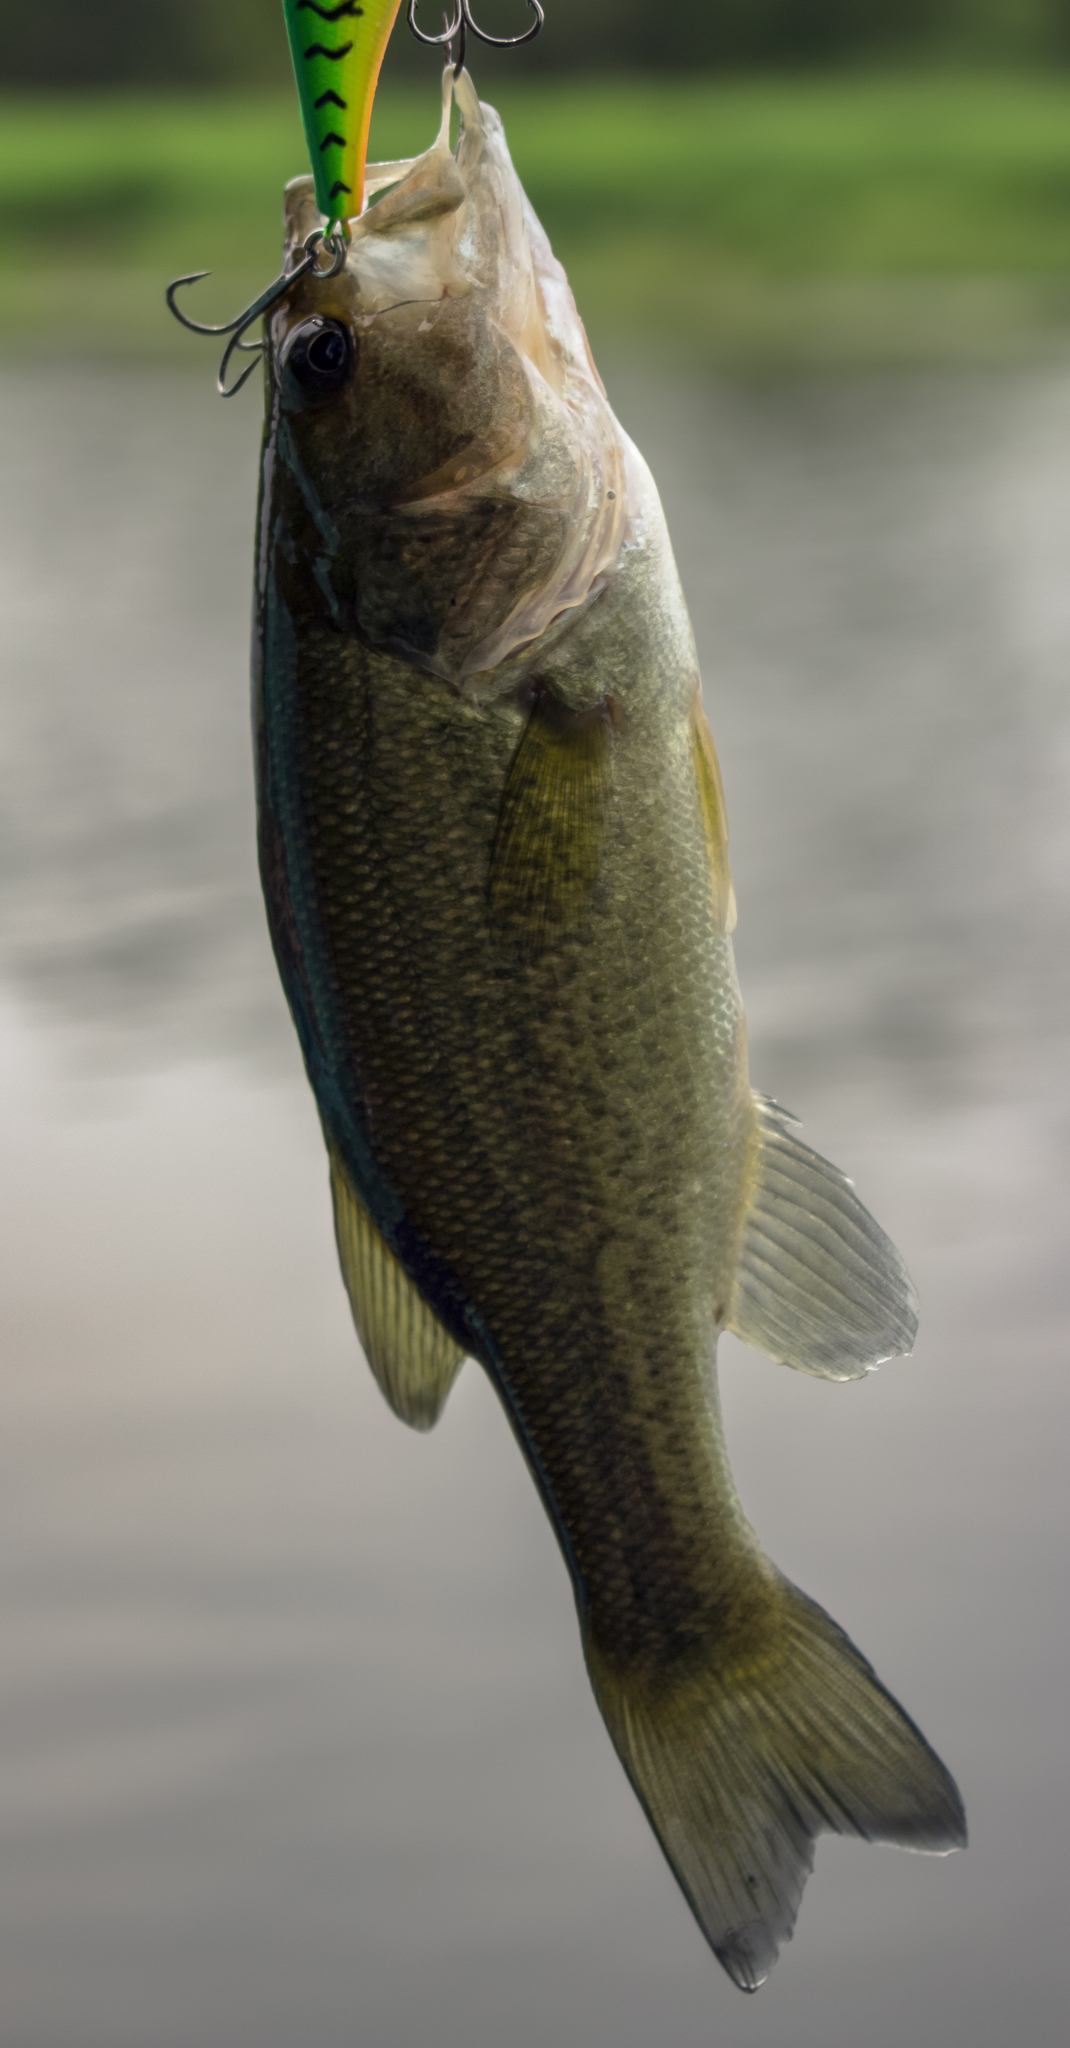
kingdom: Animalia
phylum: Chordata
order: Perciformes
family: Centrarchidae
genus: Micropterus
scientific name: Micropterus
